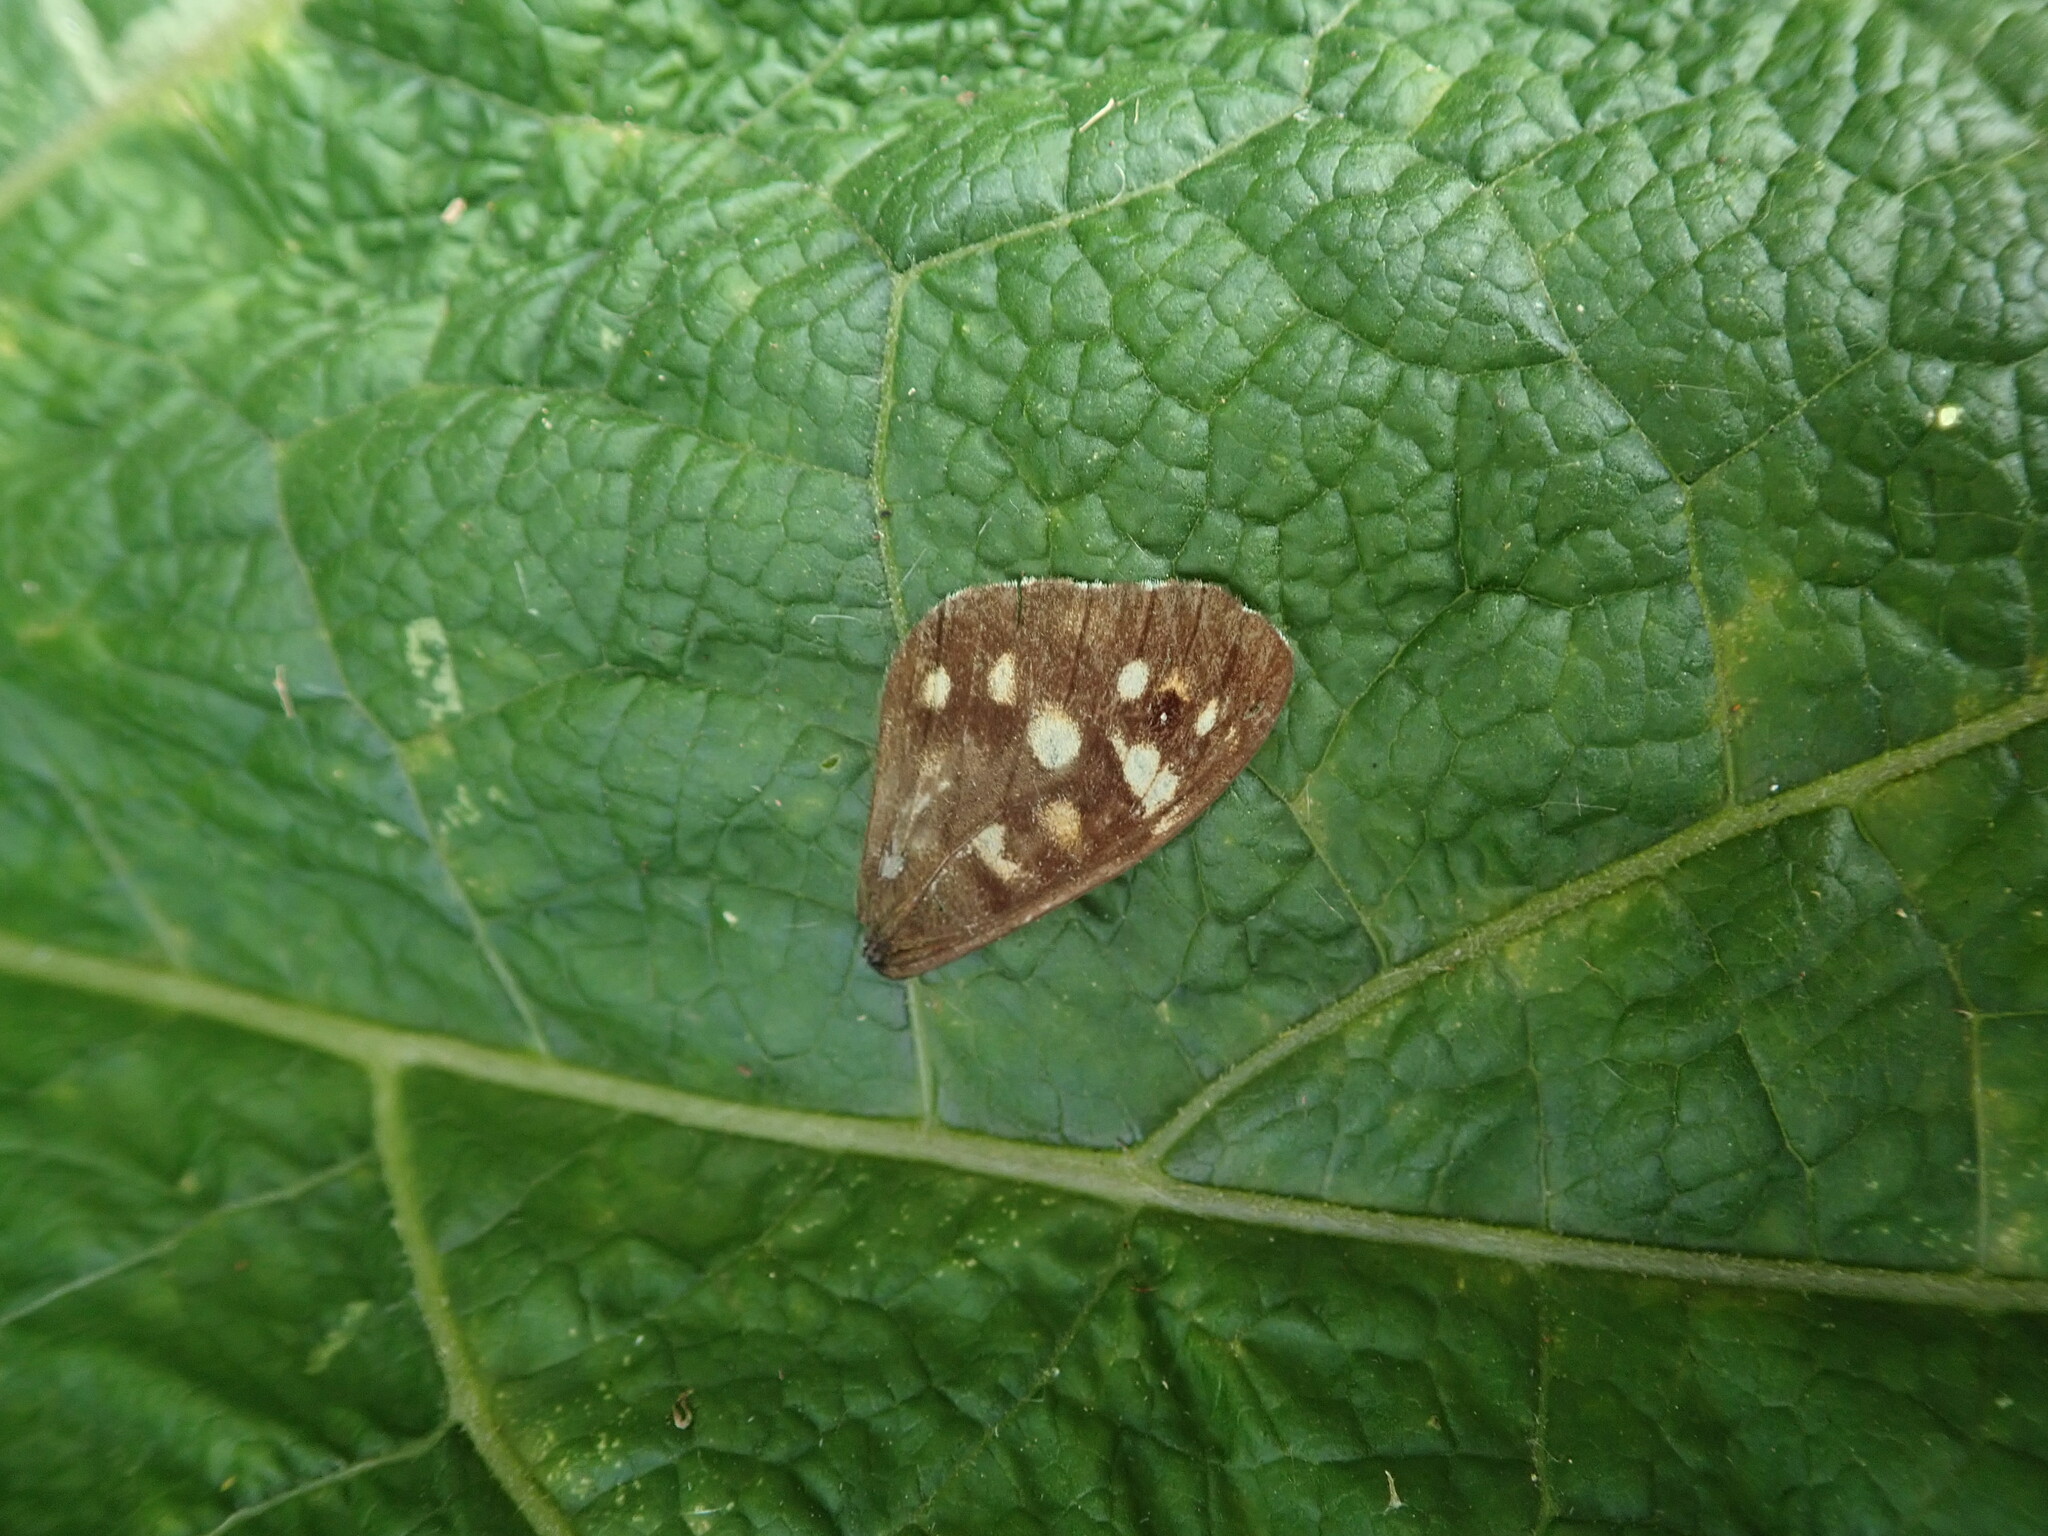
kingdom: Animalia
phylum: Arthropoda
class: Insecta
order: Lepidoptera
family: Nymphalidae
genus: Pararge
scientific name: Pararge aegeria
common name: Speckled wood
